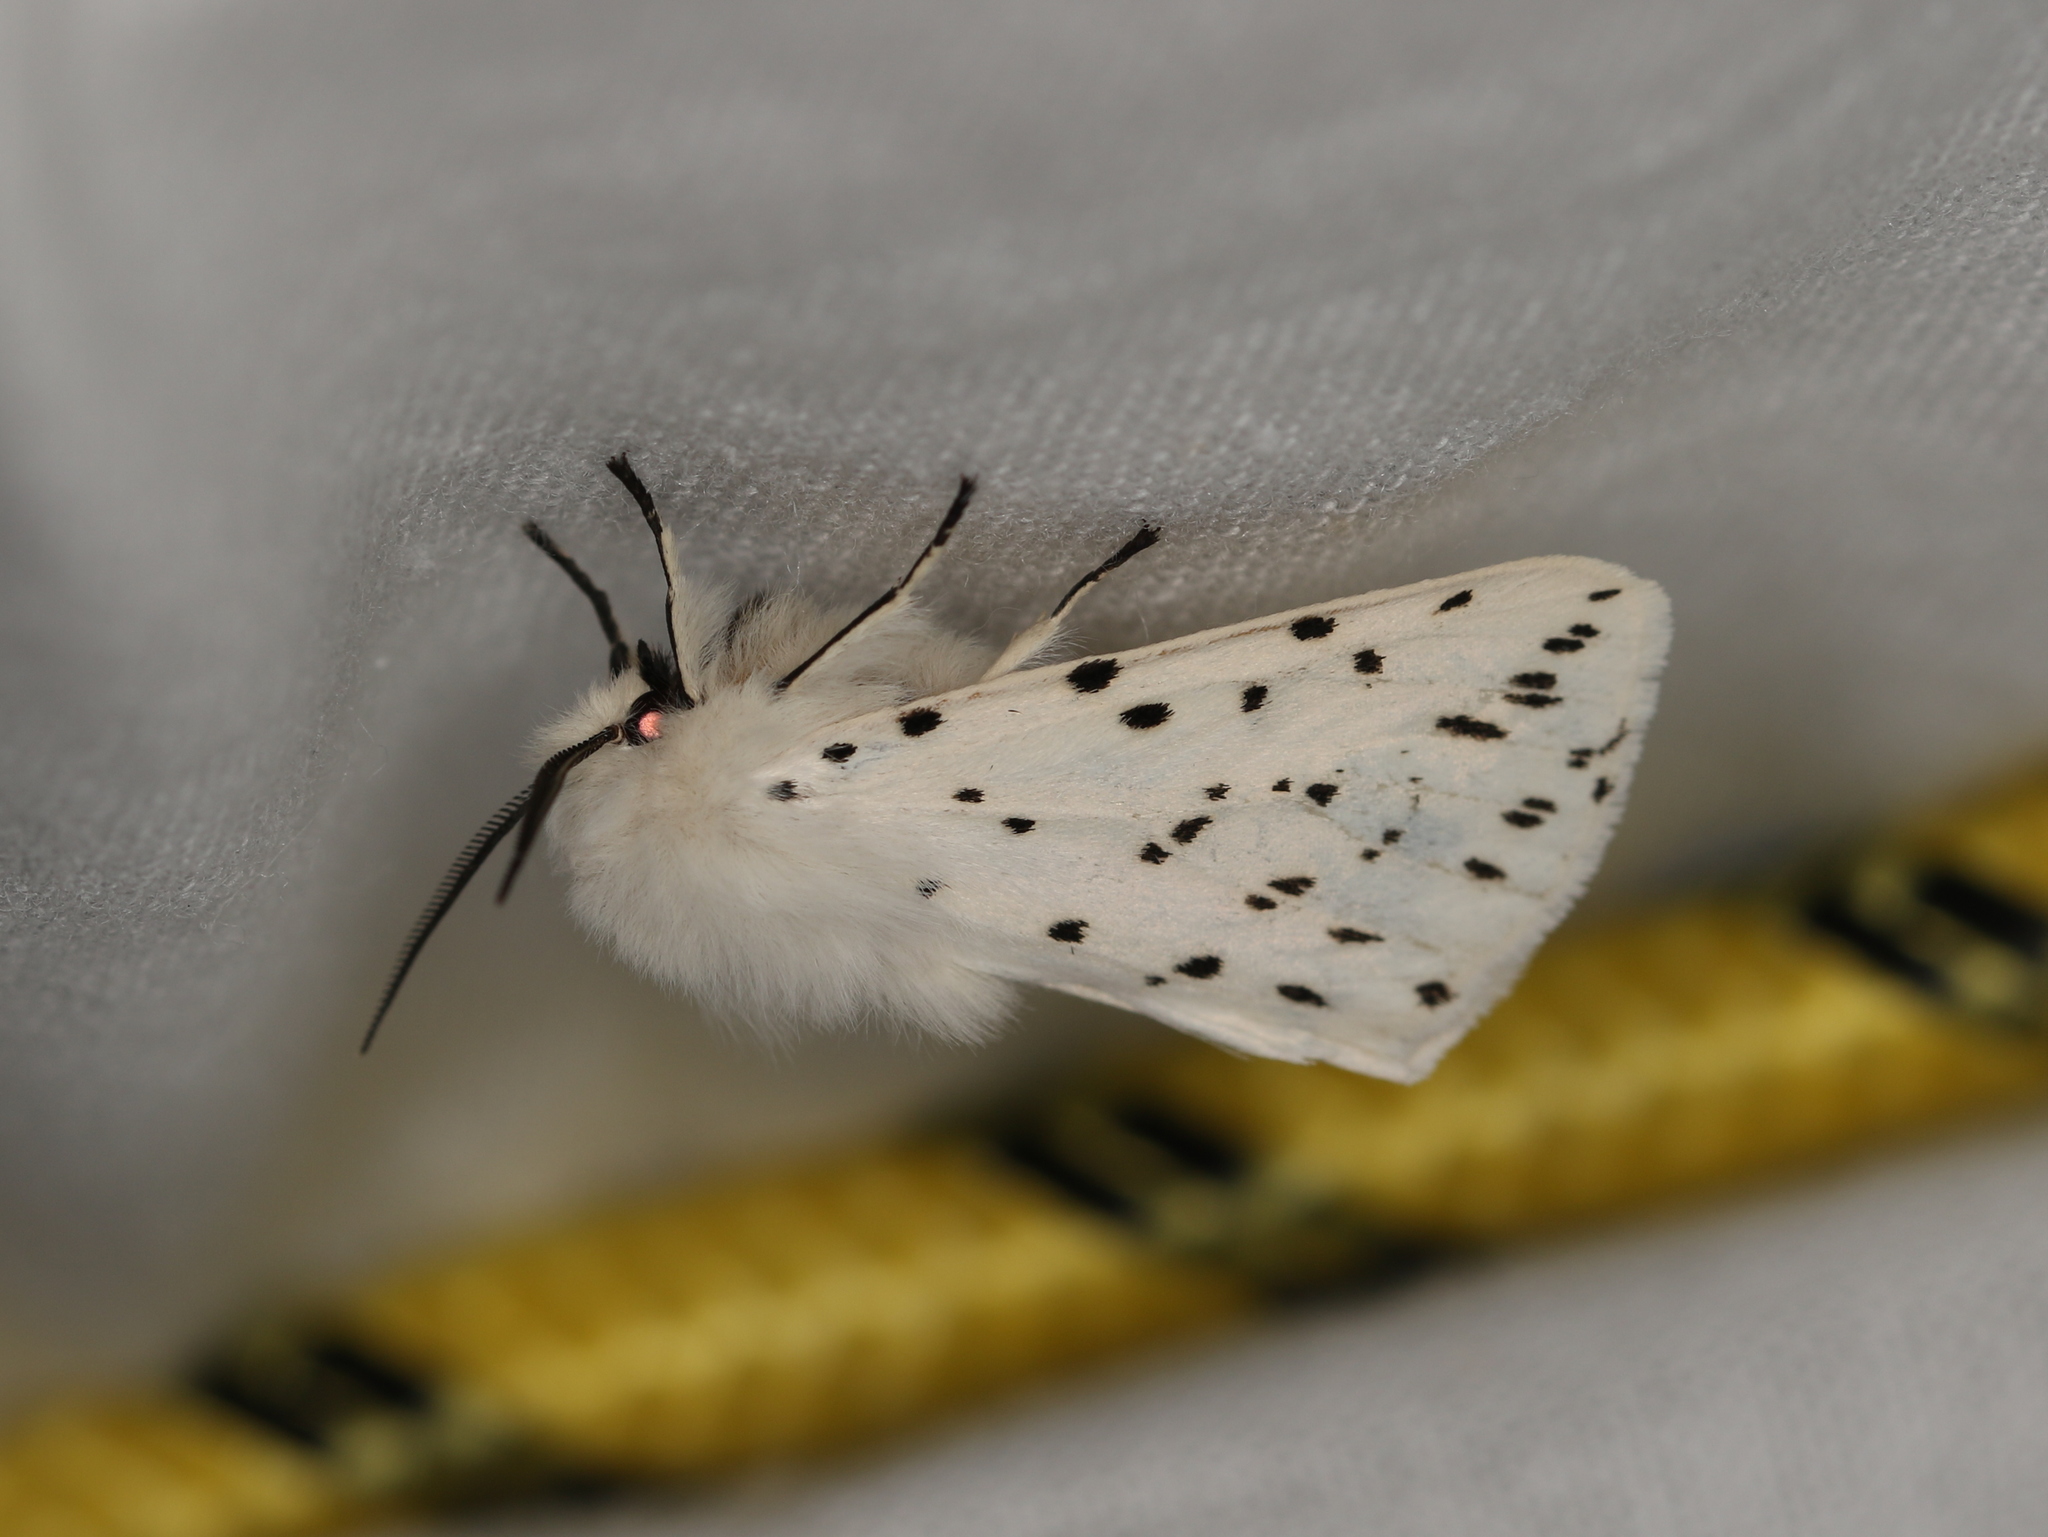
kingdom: Animalia
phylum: Arthropoda
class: Insecta
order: Lepidoptera
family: Erebidae
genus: Spilosoma
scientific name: Spilosoma lubricipeda
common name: White ermine
